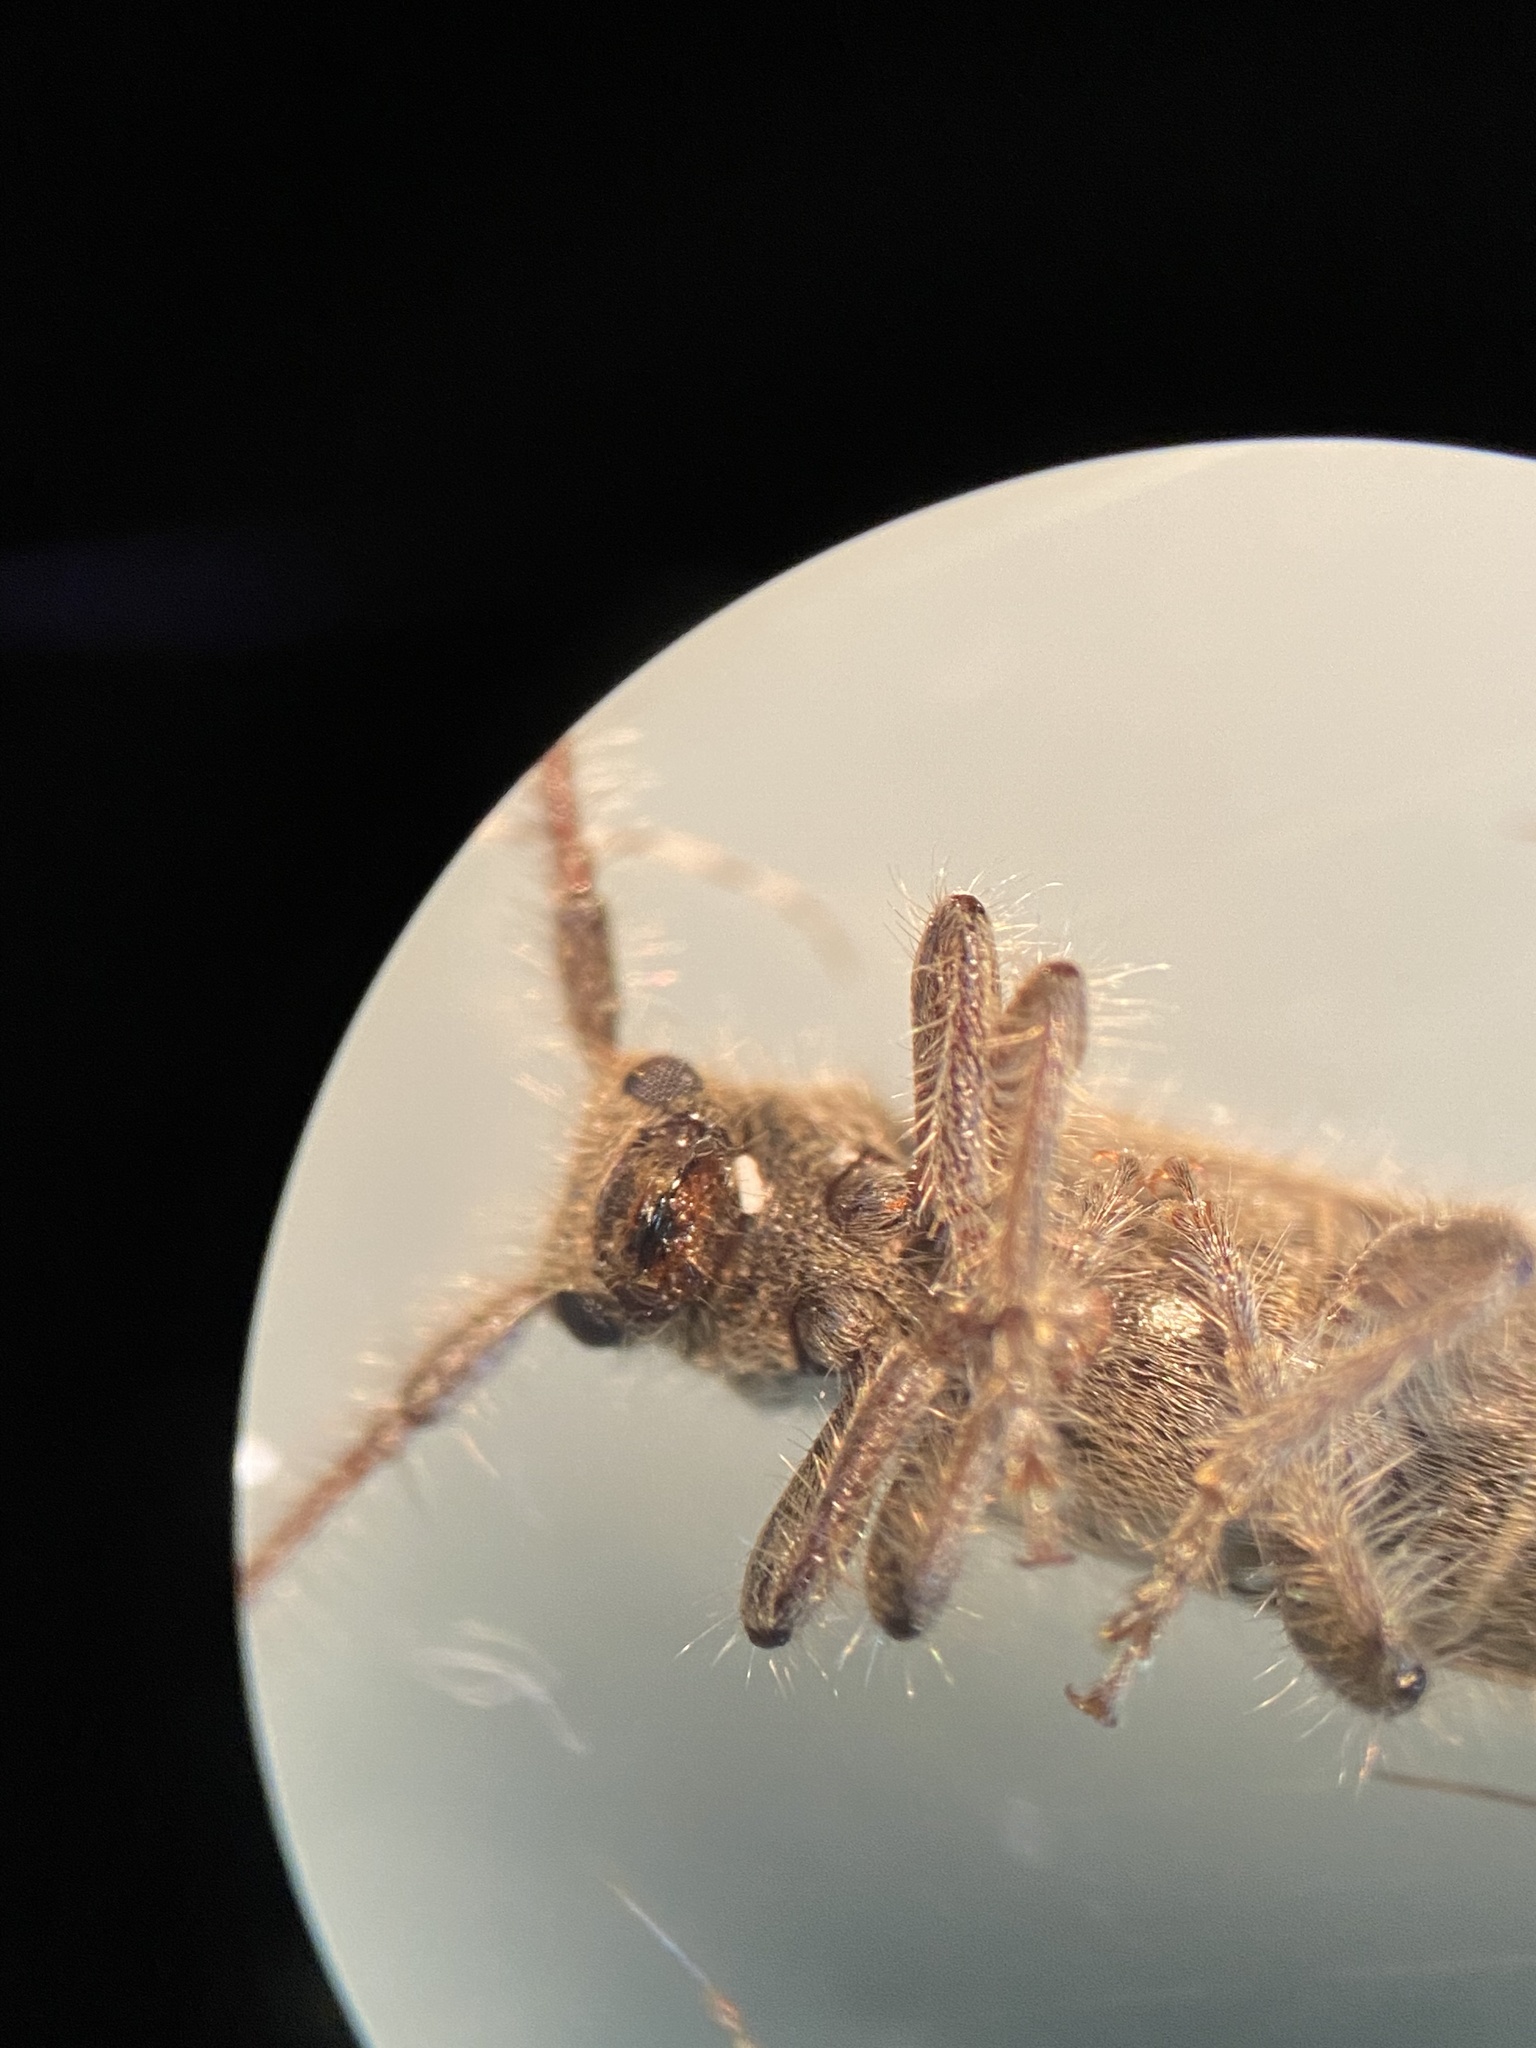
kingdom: Animalia
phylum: Arthropoda
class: Insecta
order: Coleoptera
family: Cerambycidae
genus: Eupogonius
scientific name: Eupogonius pauper
